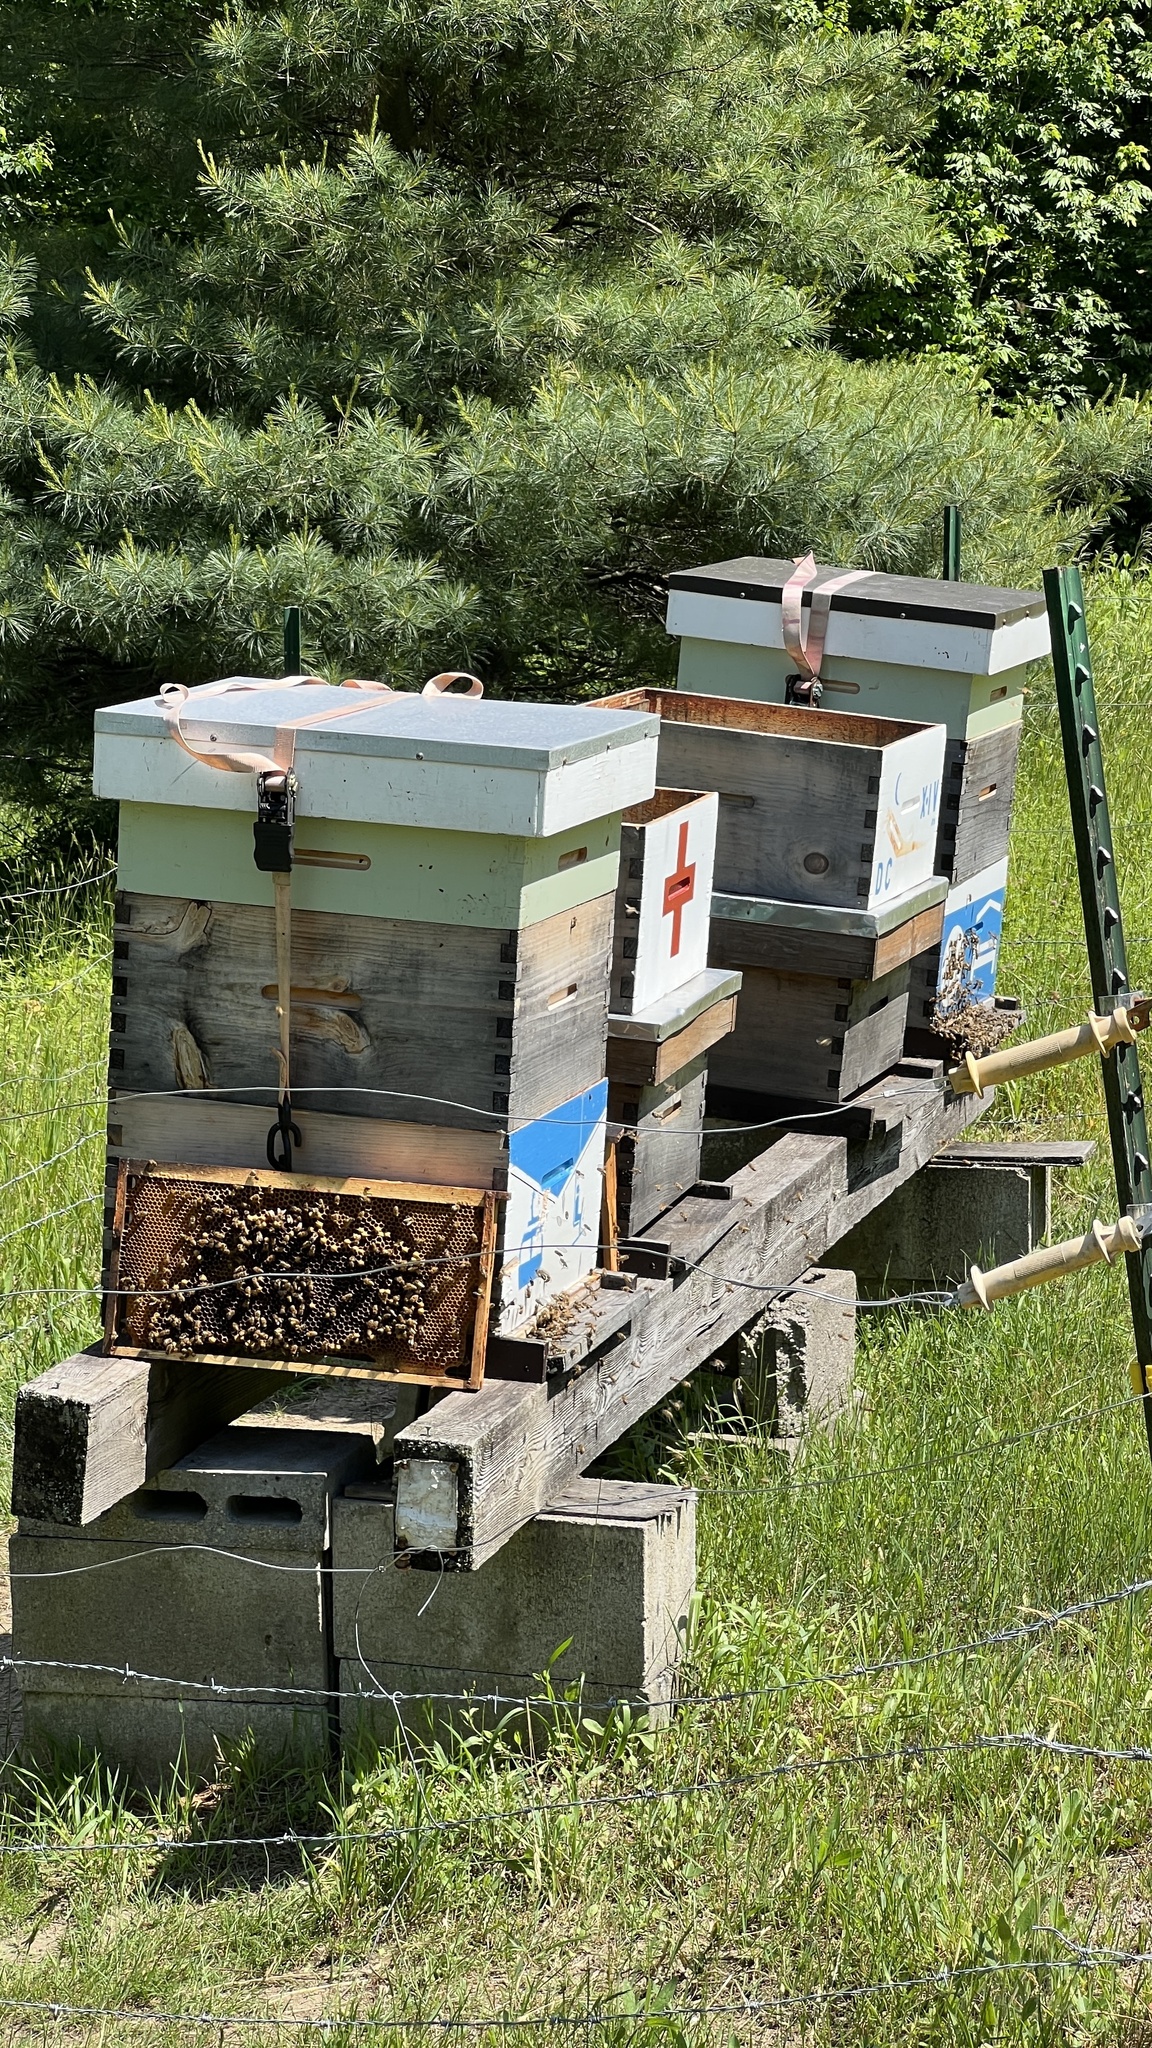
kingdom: Animalia
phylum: Arthropoda
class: Insecta
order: Hymenoptera
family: Apidae
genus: Apis
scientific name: Apis mellifera
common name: Honey bee
